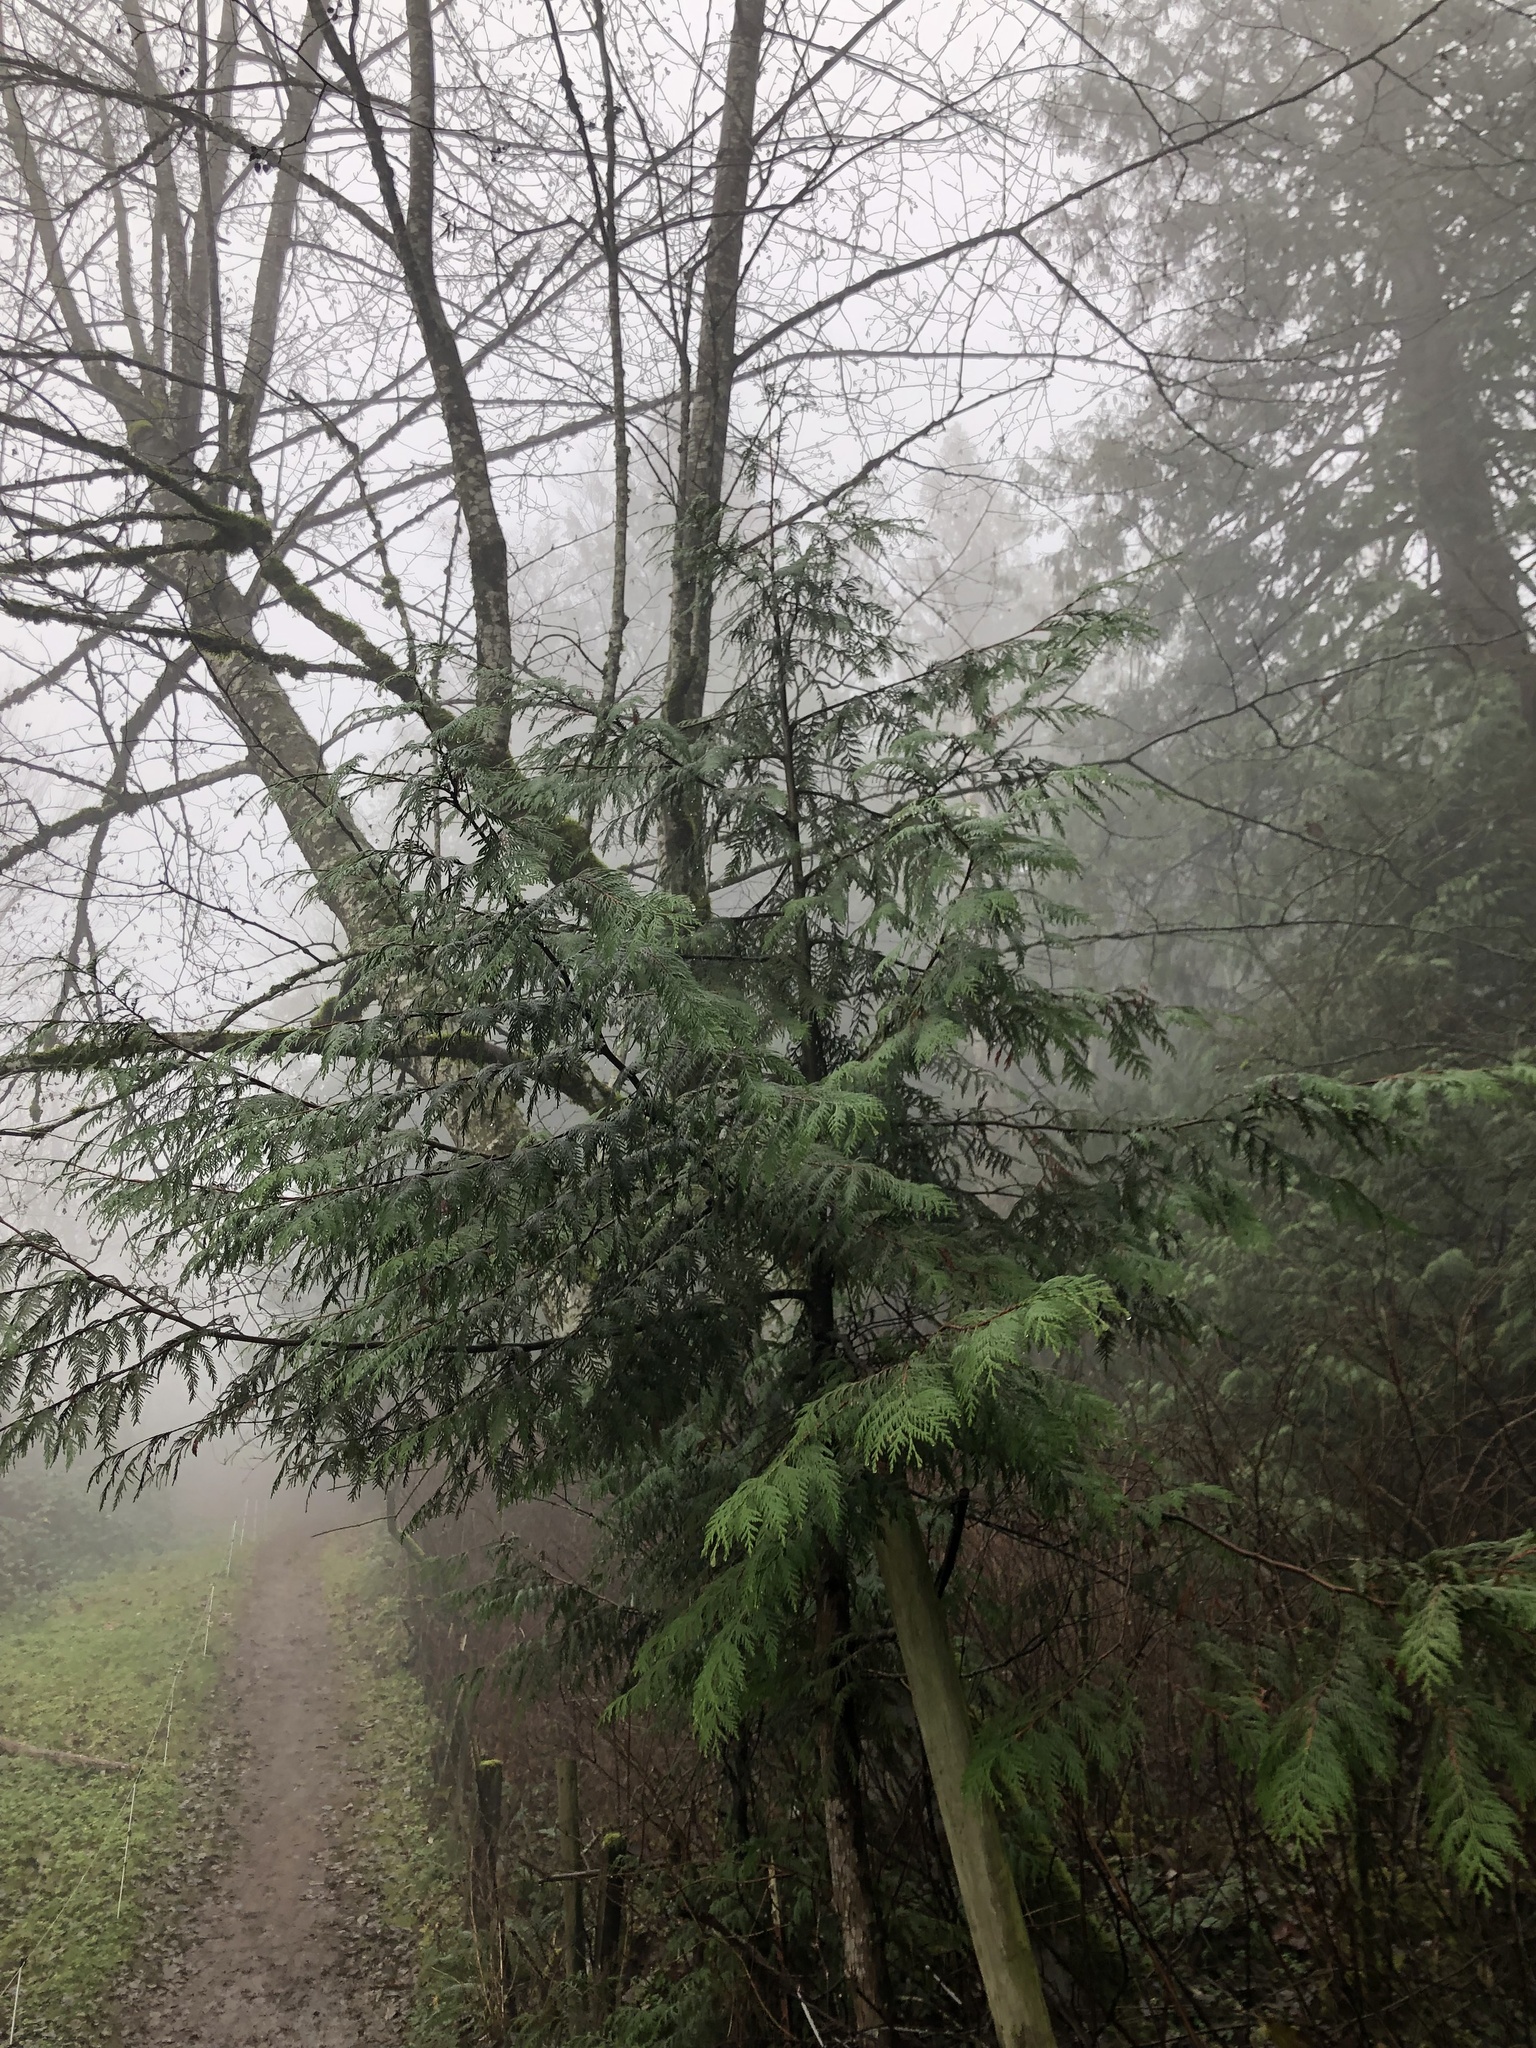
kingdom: Plantae
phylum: Tracheophyta
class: Pinopsida
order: Pinales
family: Cupressaceae
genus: Thuja
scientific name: Thuja plicata
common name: Western red-cedar
